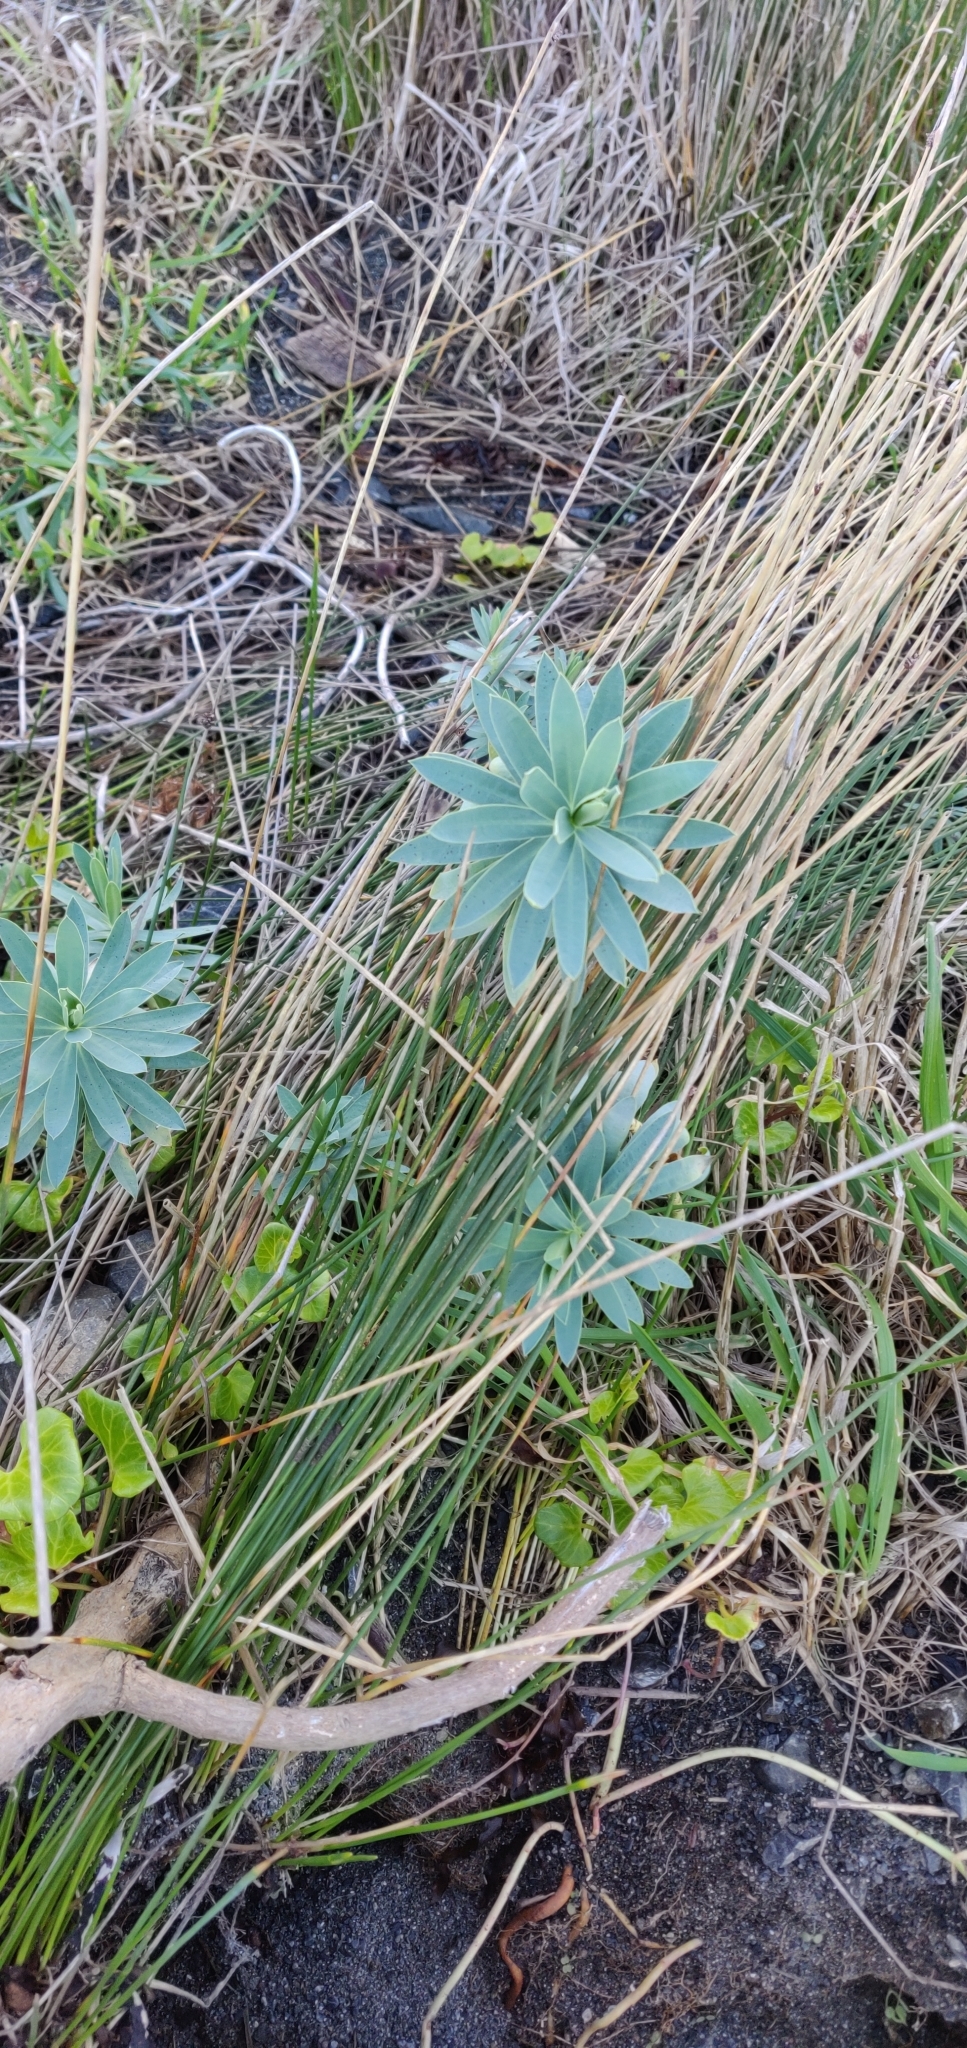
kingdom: Plantae
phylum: Tracheophyta
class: Magnoliopsida
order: Malpighiales
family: Euphorbiaceae
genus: Euphorbia
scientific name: Euphorbia glauca
